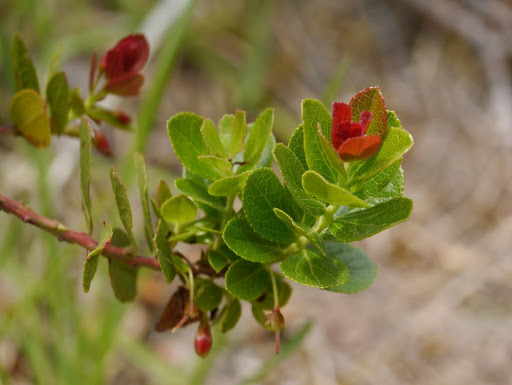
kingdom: Plantae
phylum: Tracheophyta
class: Magnoliopsida
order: Ericales
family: Ericaceae
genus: Vaccinium
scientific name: Vaccinium reticulatum
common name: Ohelo
